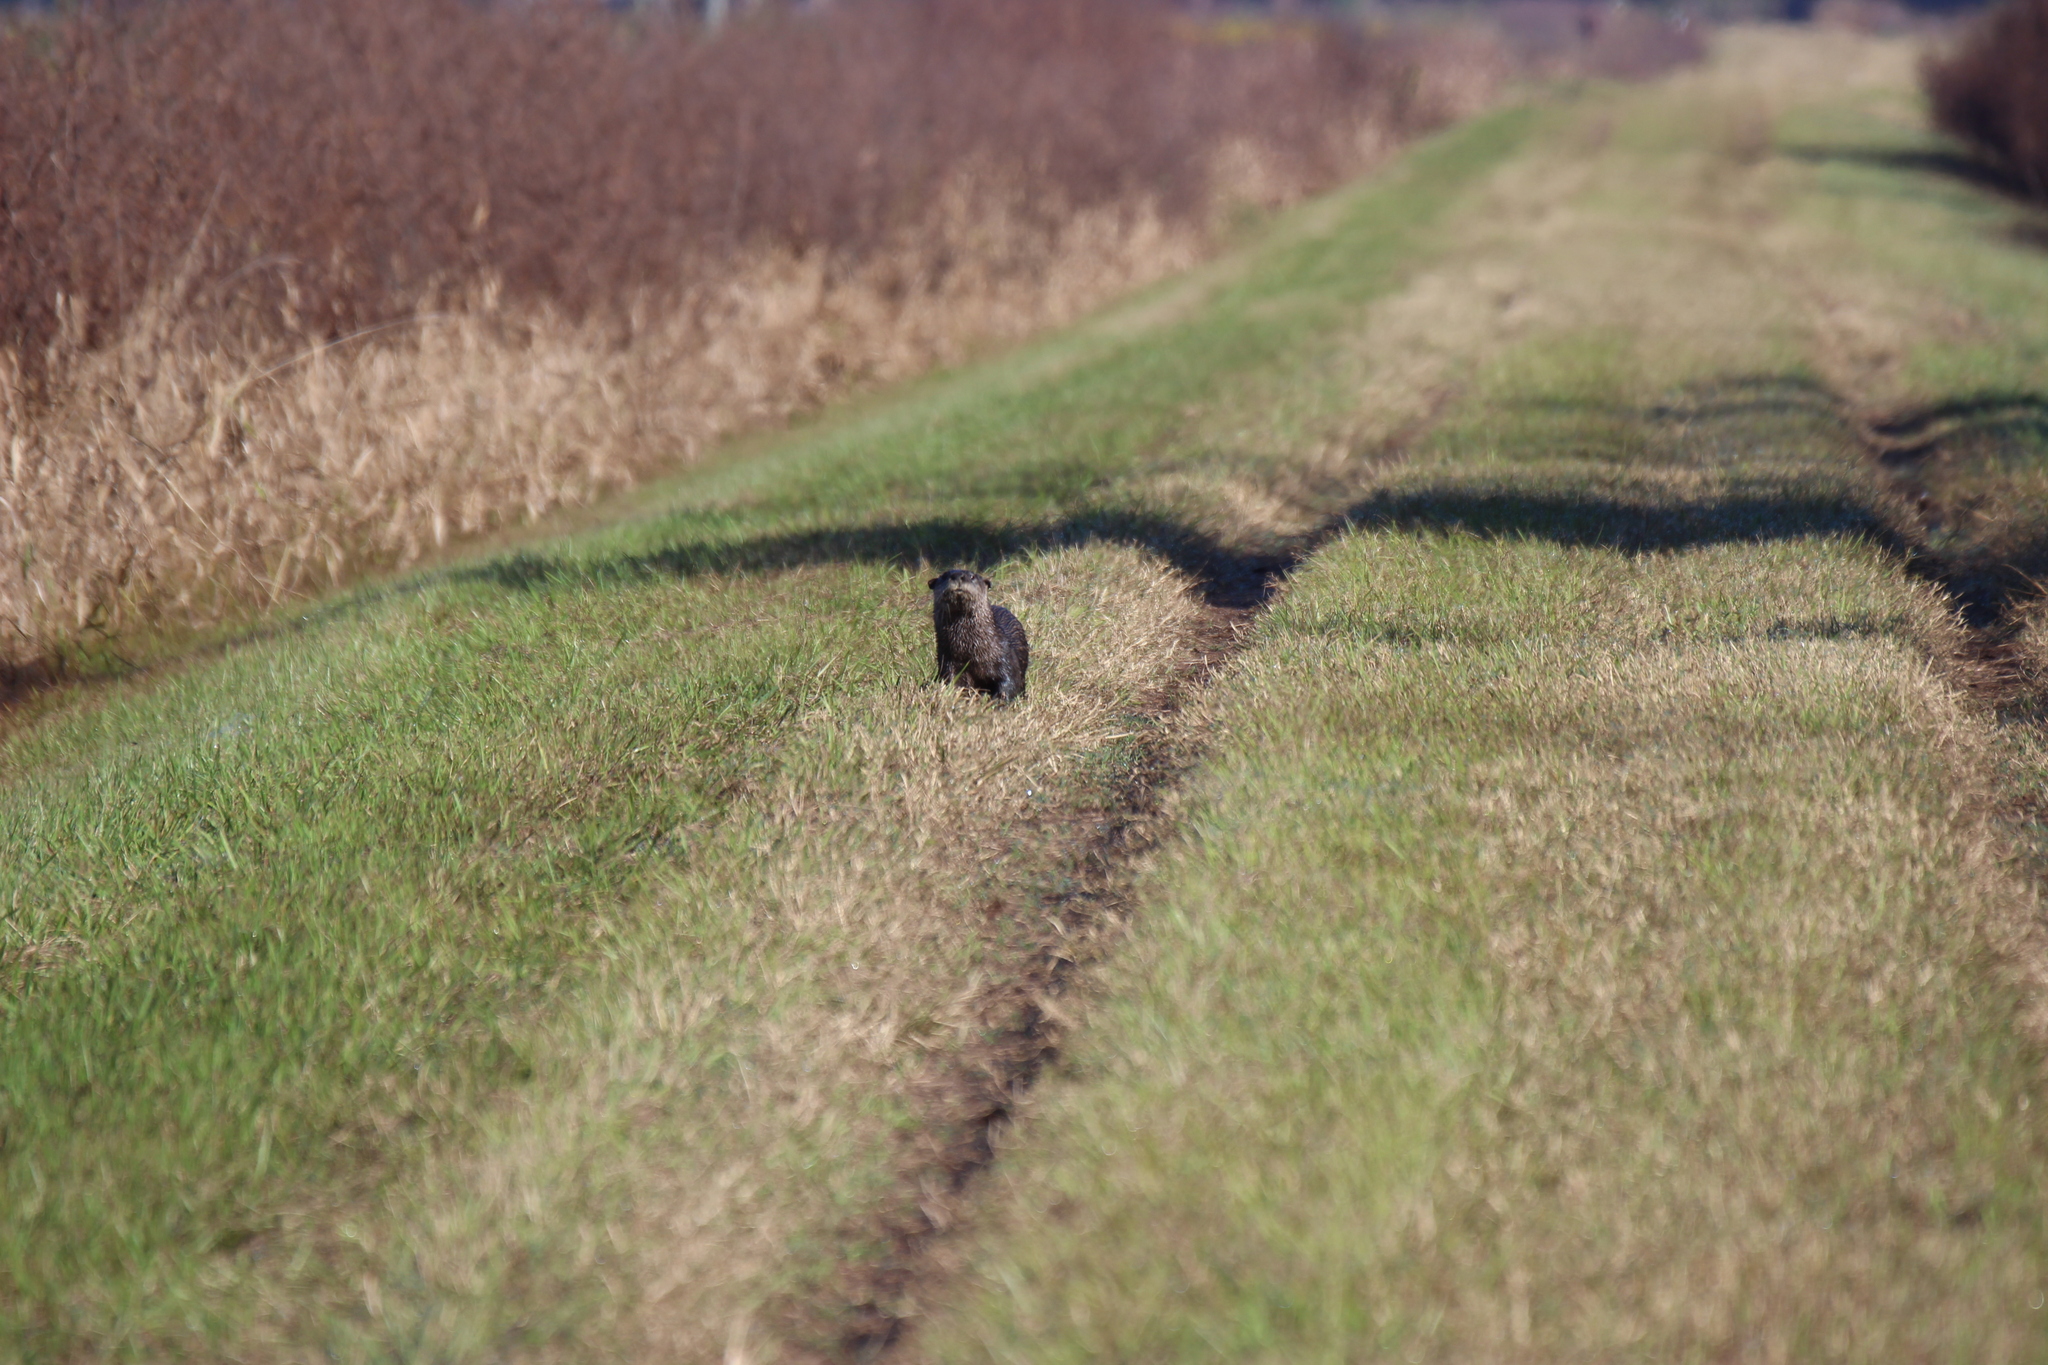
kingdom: Animalia
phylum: Chordata
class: Mammalia
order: Carnivora
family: Mustelidae
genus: Lontra
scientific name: Lontra canadensis
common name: North american river otter
